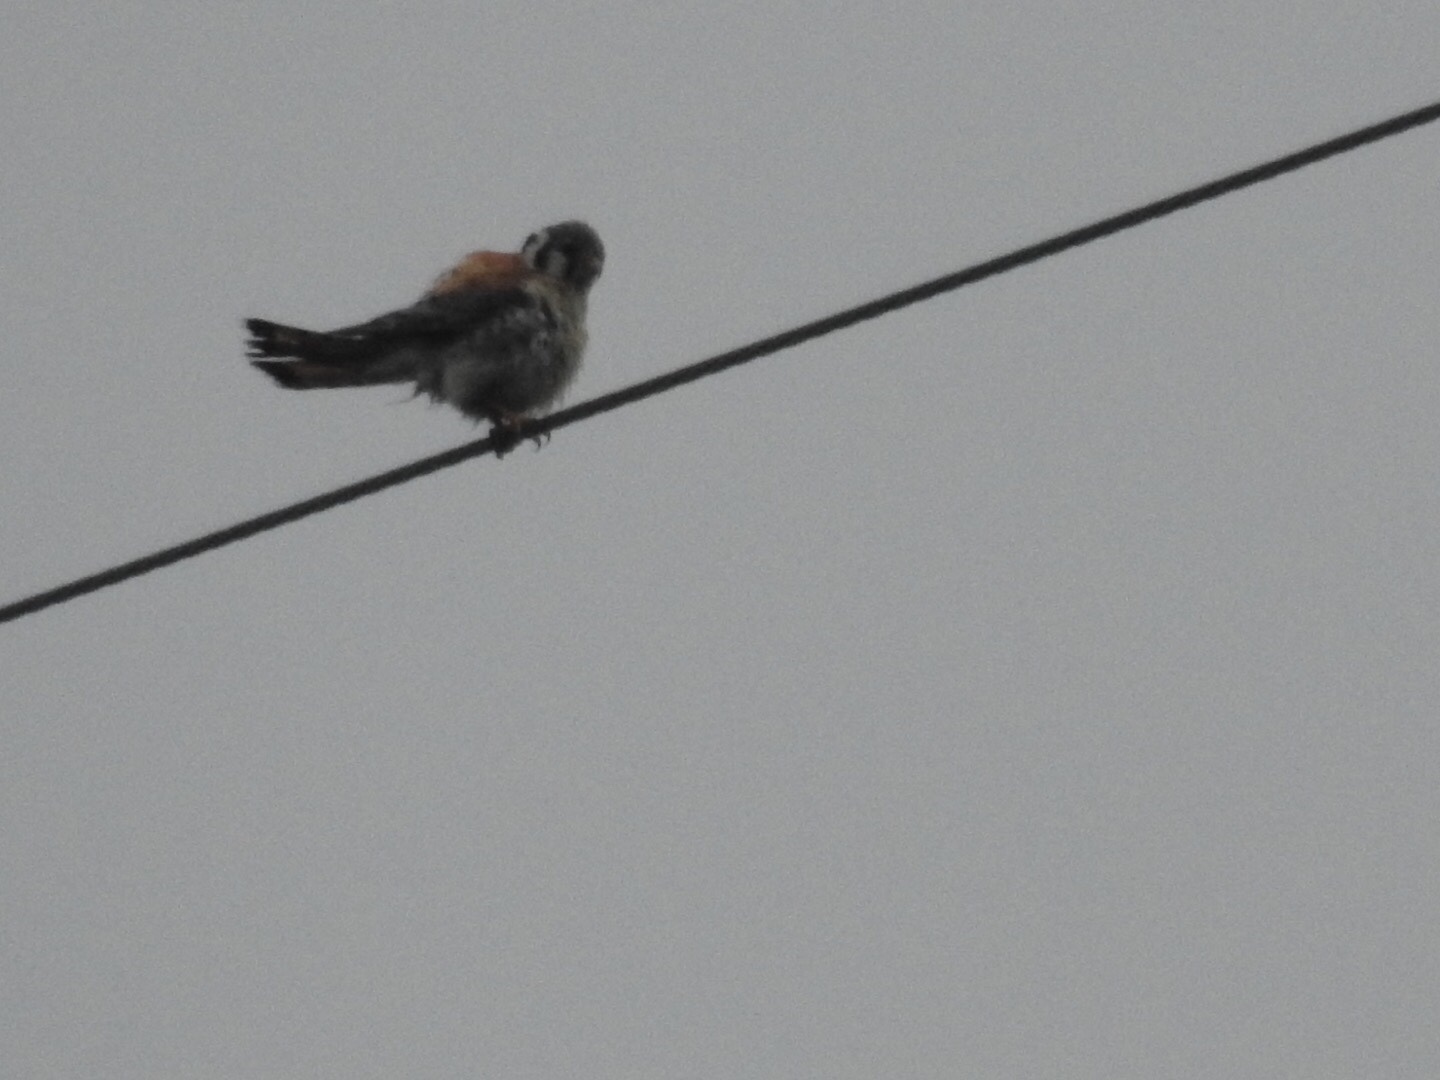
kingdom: Animalia
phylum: Chordata
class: Aves
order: Falconiformes
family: Falconidae
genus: Falco
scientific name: Falco sparverius
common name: American kestrel
